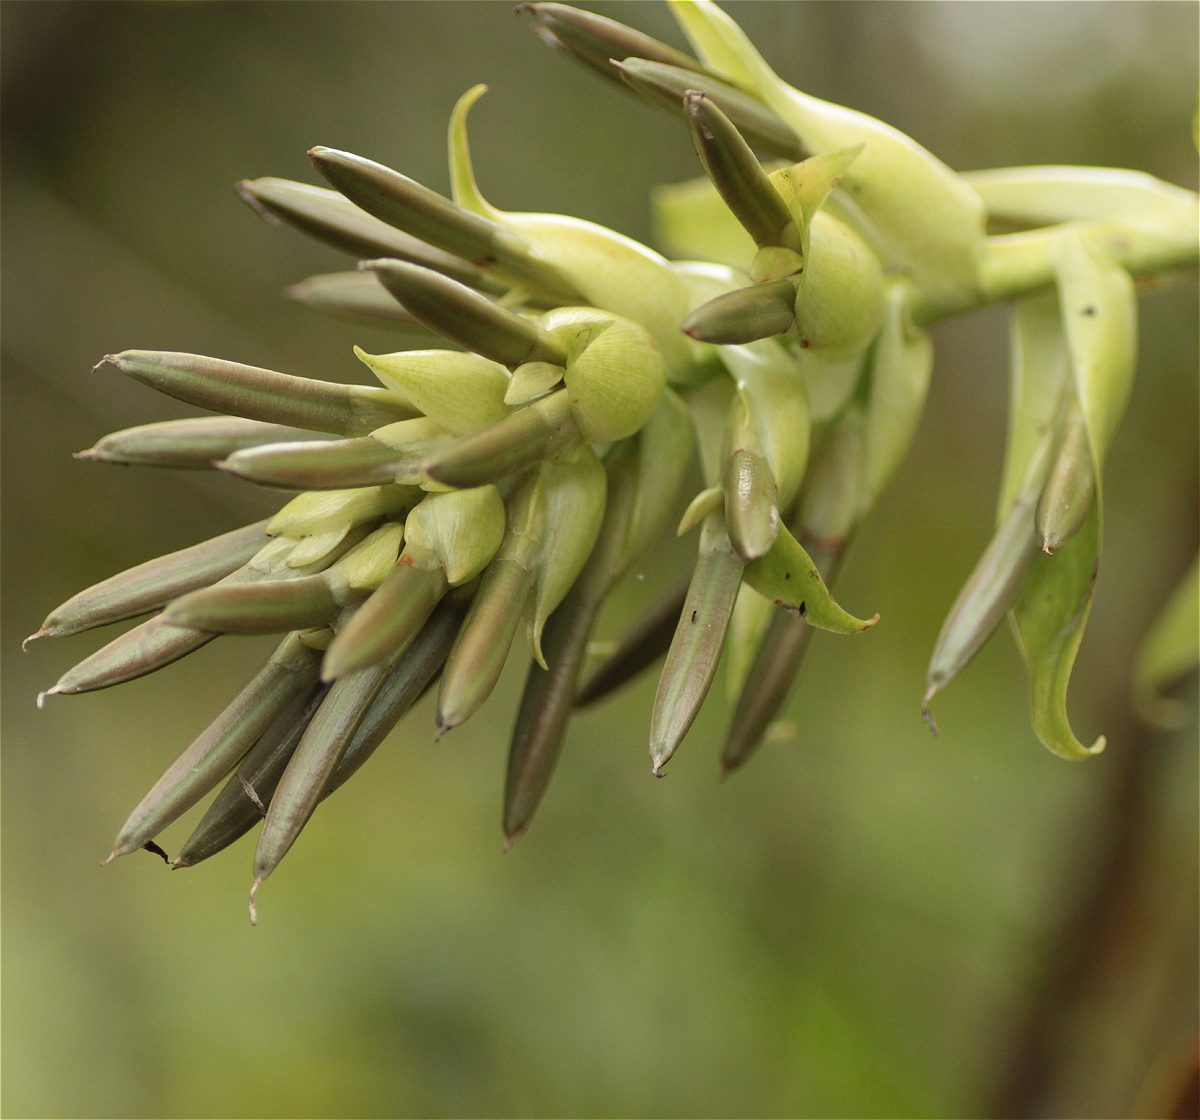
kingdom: Plantae
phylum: Tracheophyta
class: Liliopsida
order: Poales
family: Bromeliaceae
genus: Tillandsia
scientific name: Tillandsia biflora
